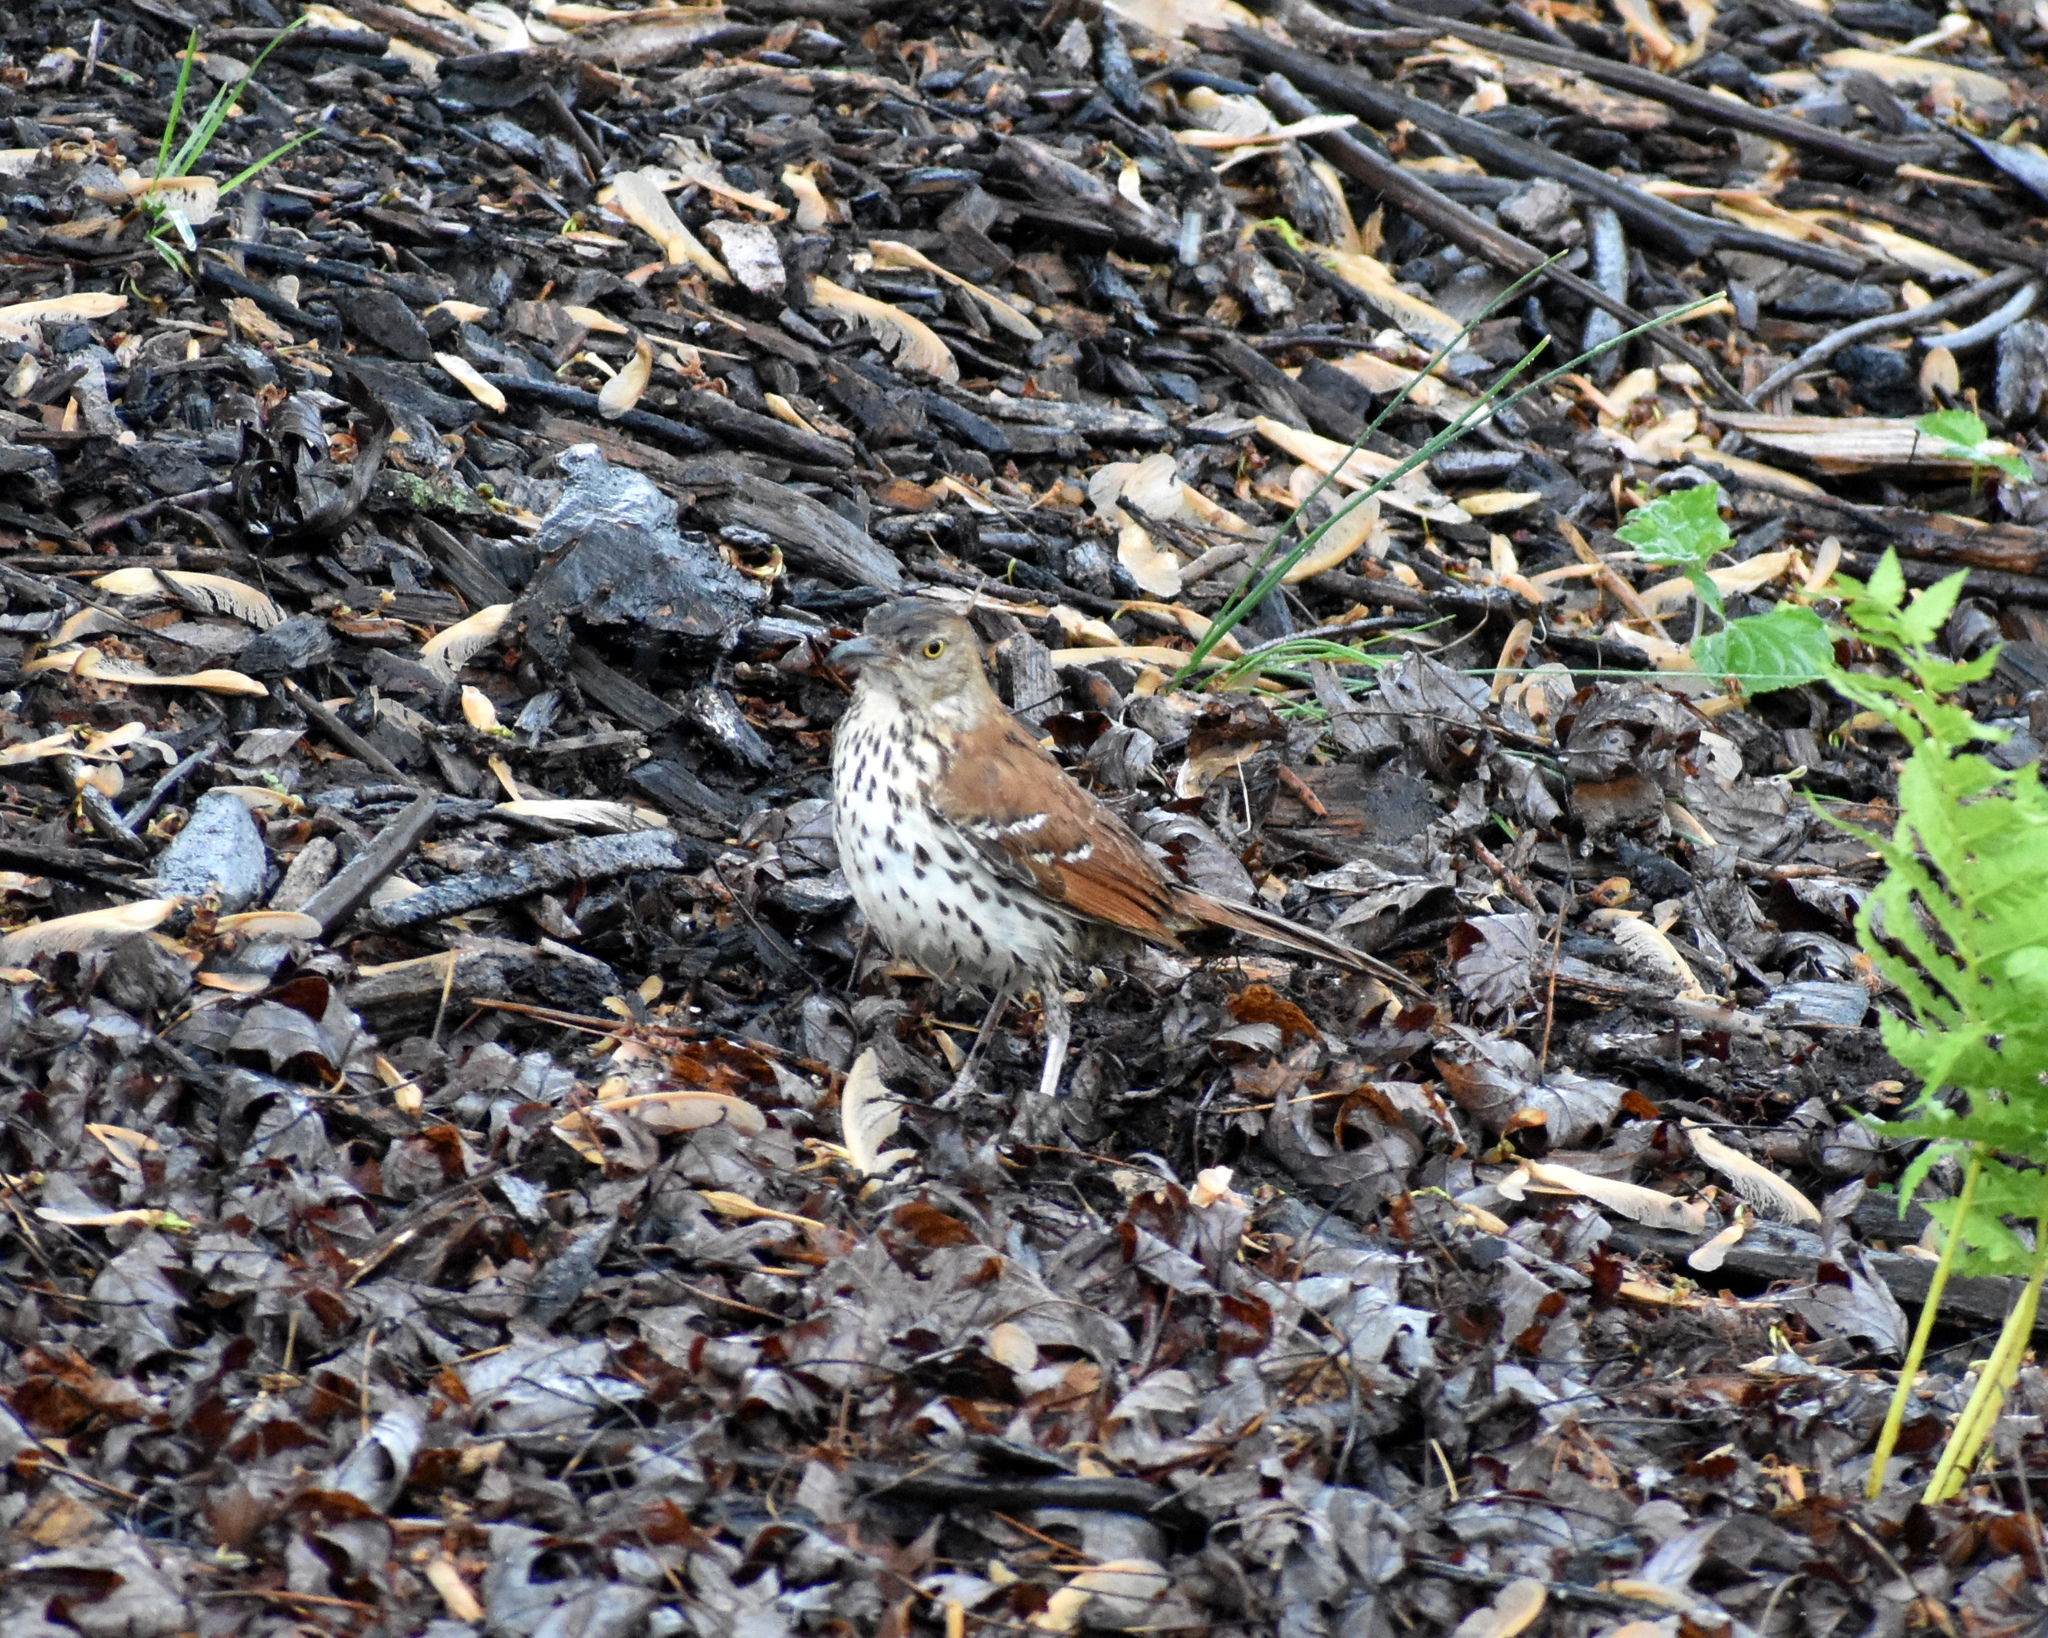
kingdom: Animalia
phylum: Chordata
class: Aves
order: Passeriformes
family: Mimidae
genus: Toxostoma
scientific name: Toxostoma rufum
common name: Brown thrasher
